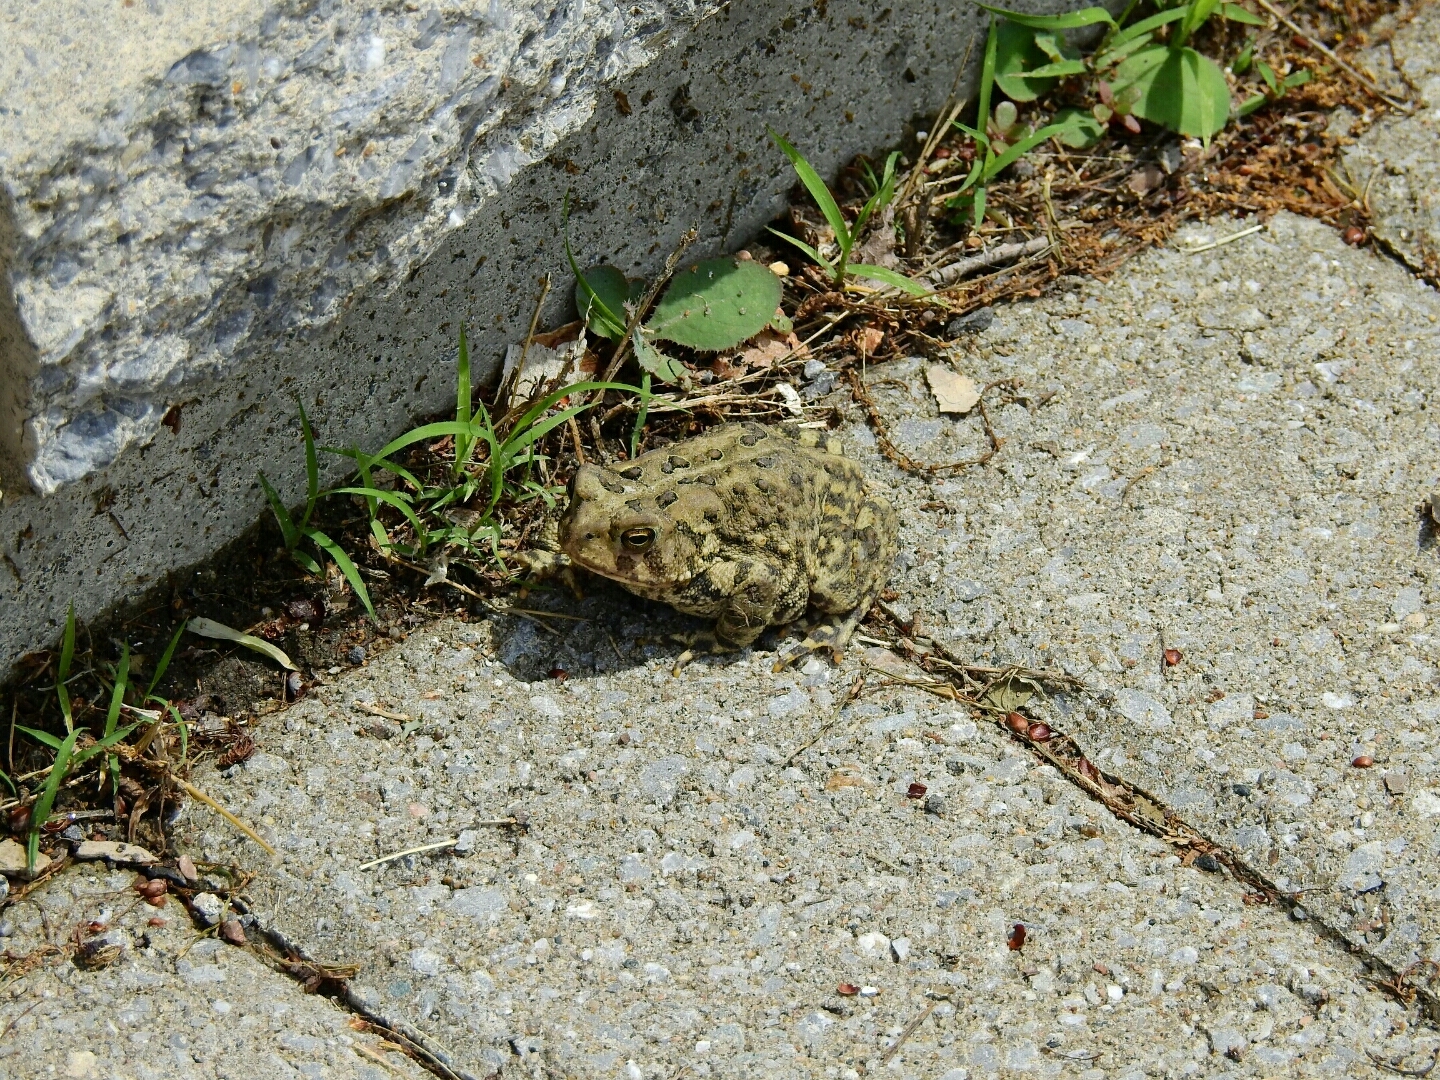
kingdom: Animalia
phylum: Chordata
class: Amphibia
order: Anura
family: Bufonidae
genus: Anaxyrus
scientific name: Anaxyrus americanus
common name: American toad
